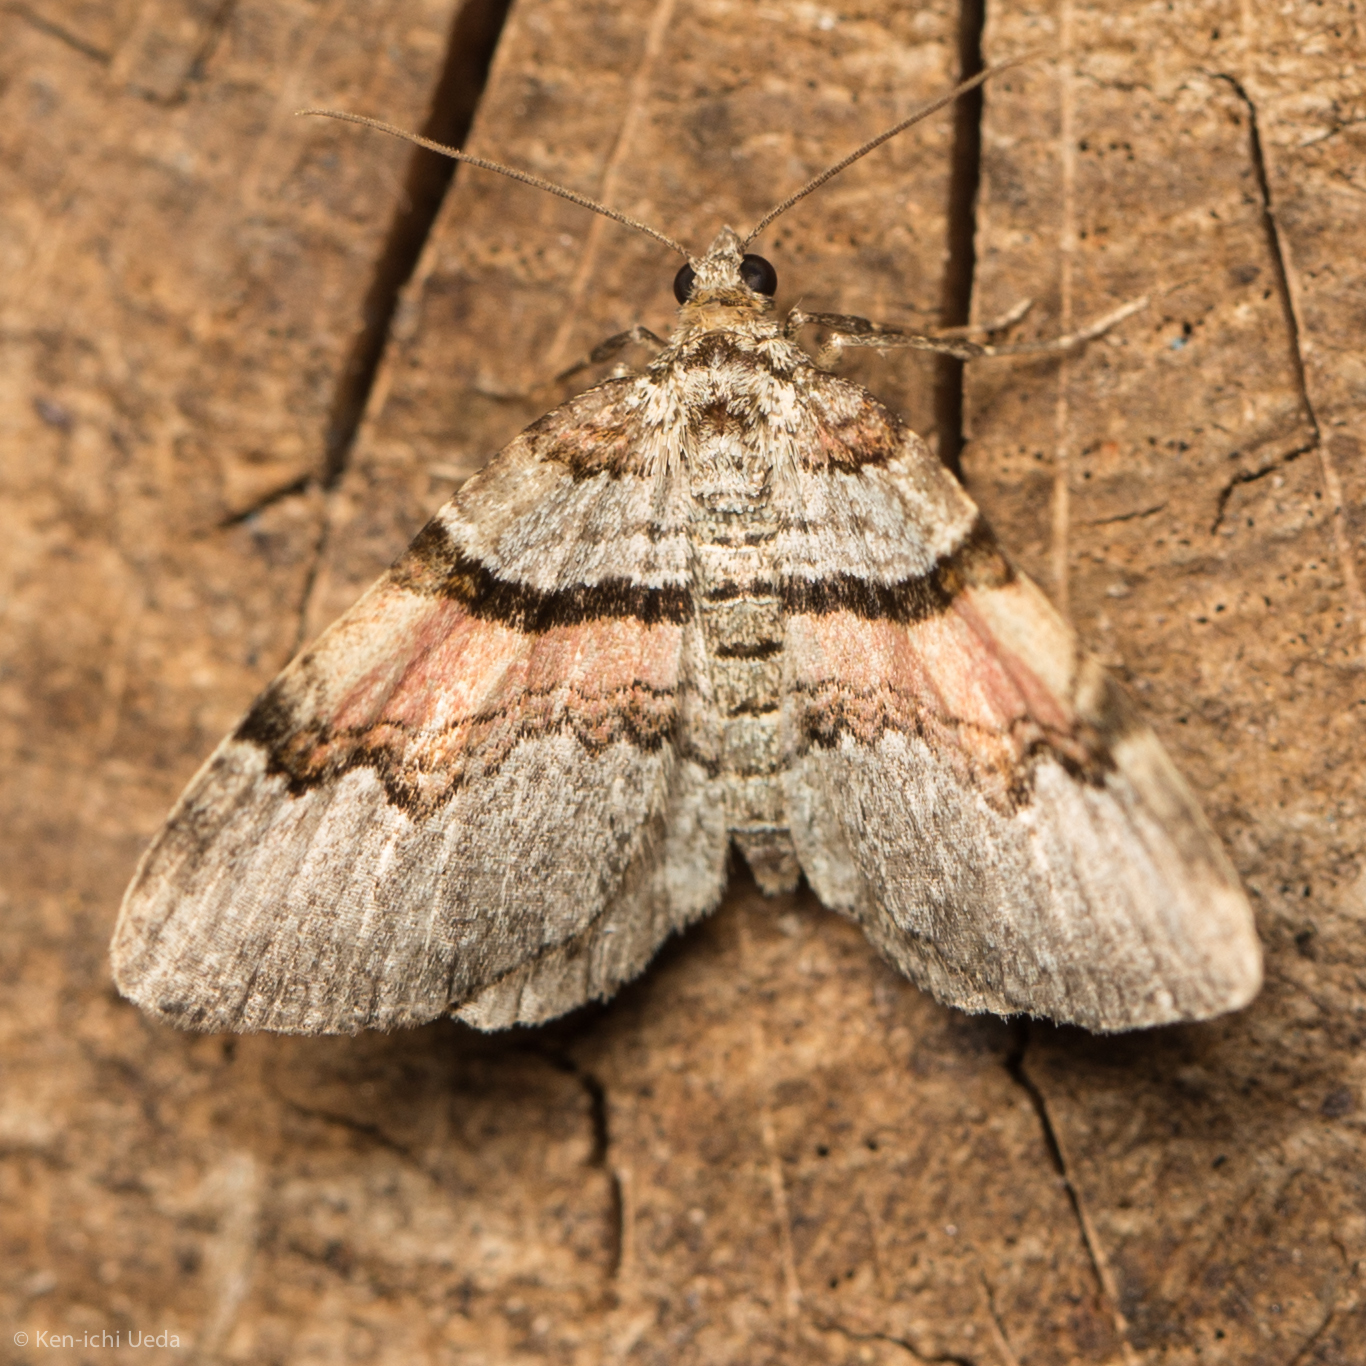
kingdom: Animalia
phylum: Arthropoda
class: Insecta
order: Lepidoptera
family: Geometridae
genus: Xanthorhoe
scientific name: Xanthorhoe labradorensis
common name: Labrador carpet
